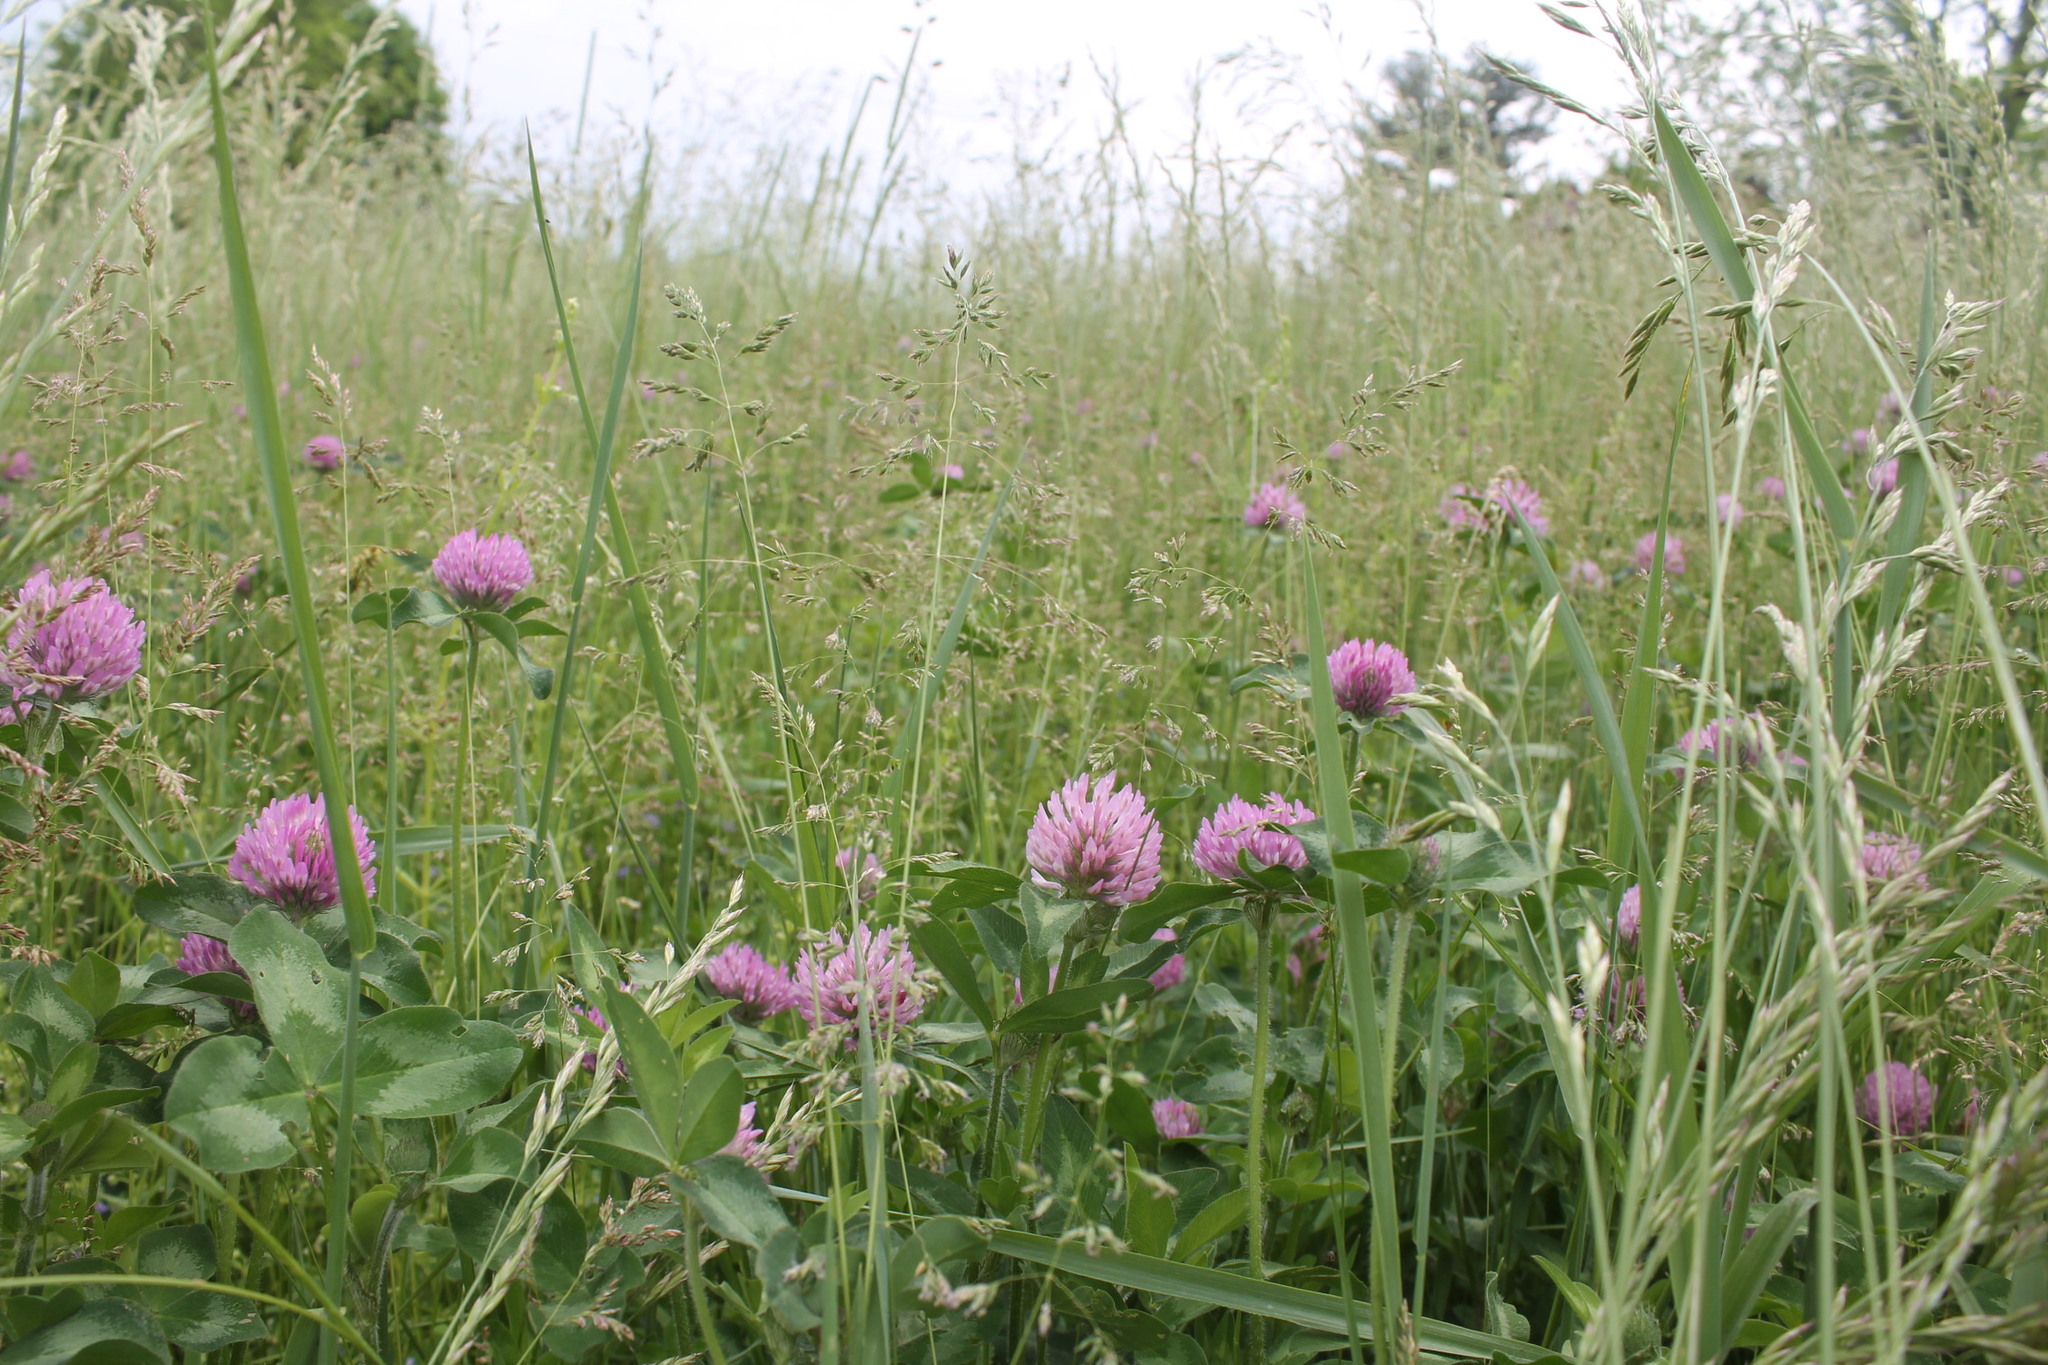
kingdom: Plantae
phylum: Tracheophyta
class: Magnoliopsida
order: Fabales
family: Fabaceae
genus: Trifolium
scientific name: Trifolium pratense
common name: Red clover
